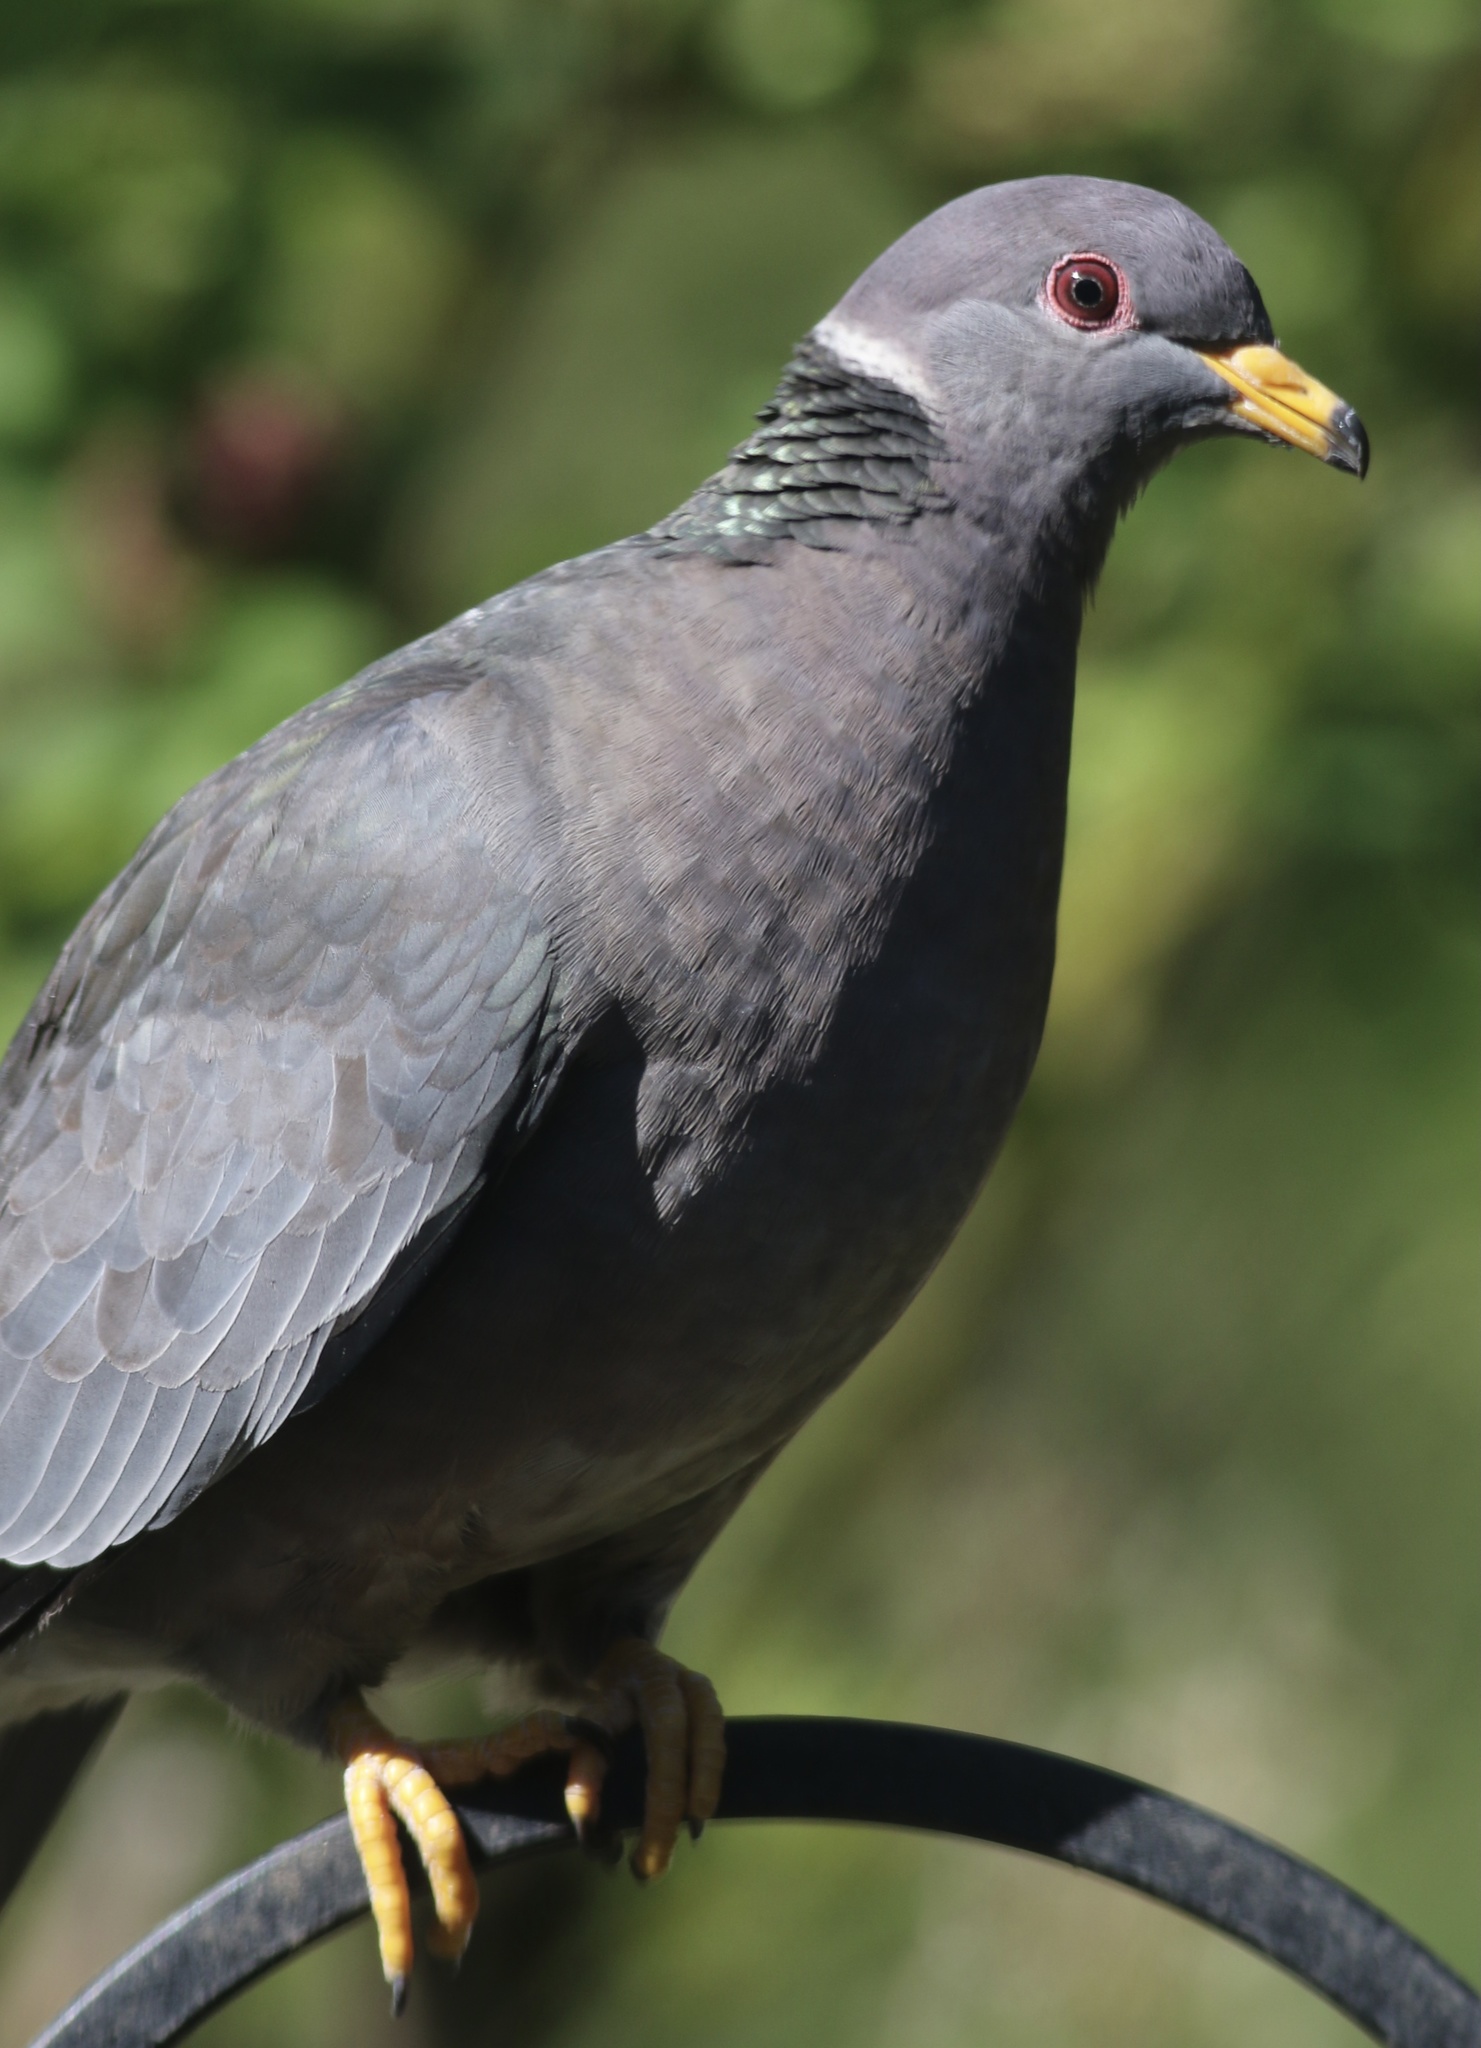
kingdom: Animalia
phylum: Chordata
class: Aves
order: Columbiformes
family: Columbidae
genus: Patagioenas
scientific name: Patagioenas fasciata
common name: Band-tailed pigeon
